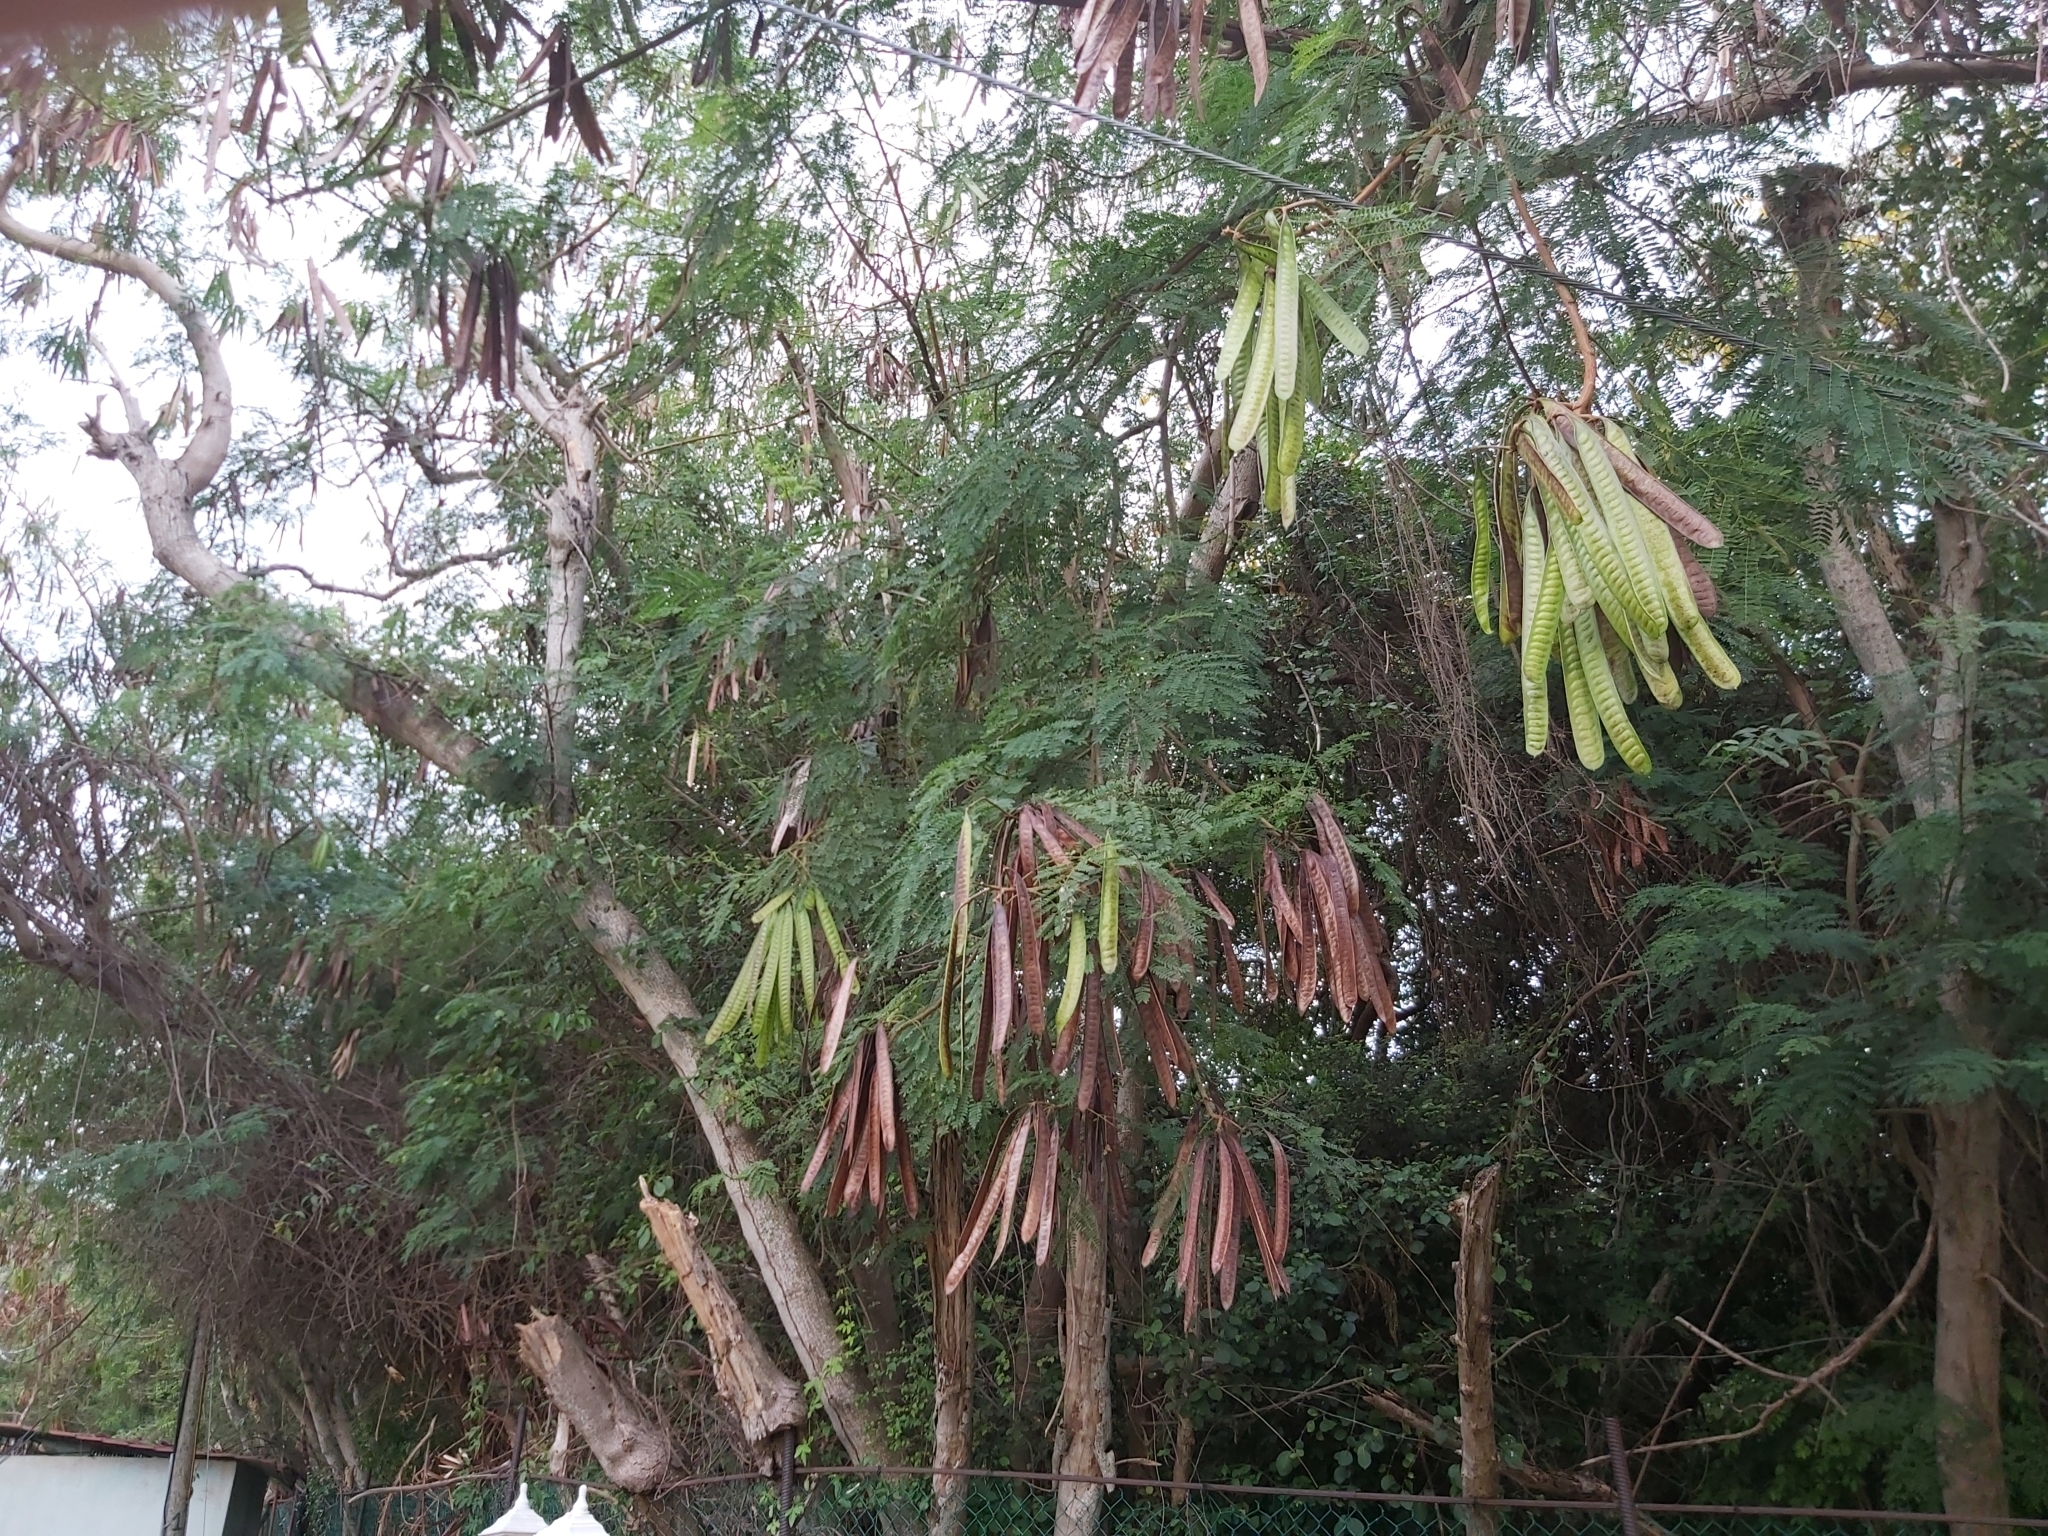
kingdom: Plantae
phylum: Tracheophyta
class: Magnoliopsida
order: Fabales
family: Fabaceae
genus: Leucaena
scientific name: Leucaena leucocephala
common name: White leadtree
